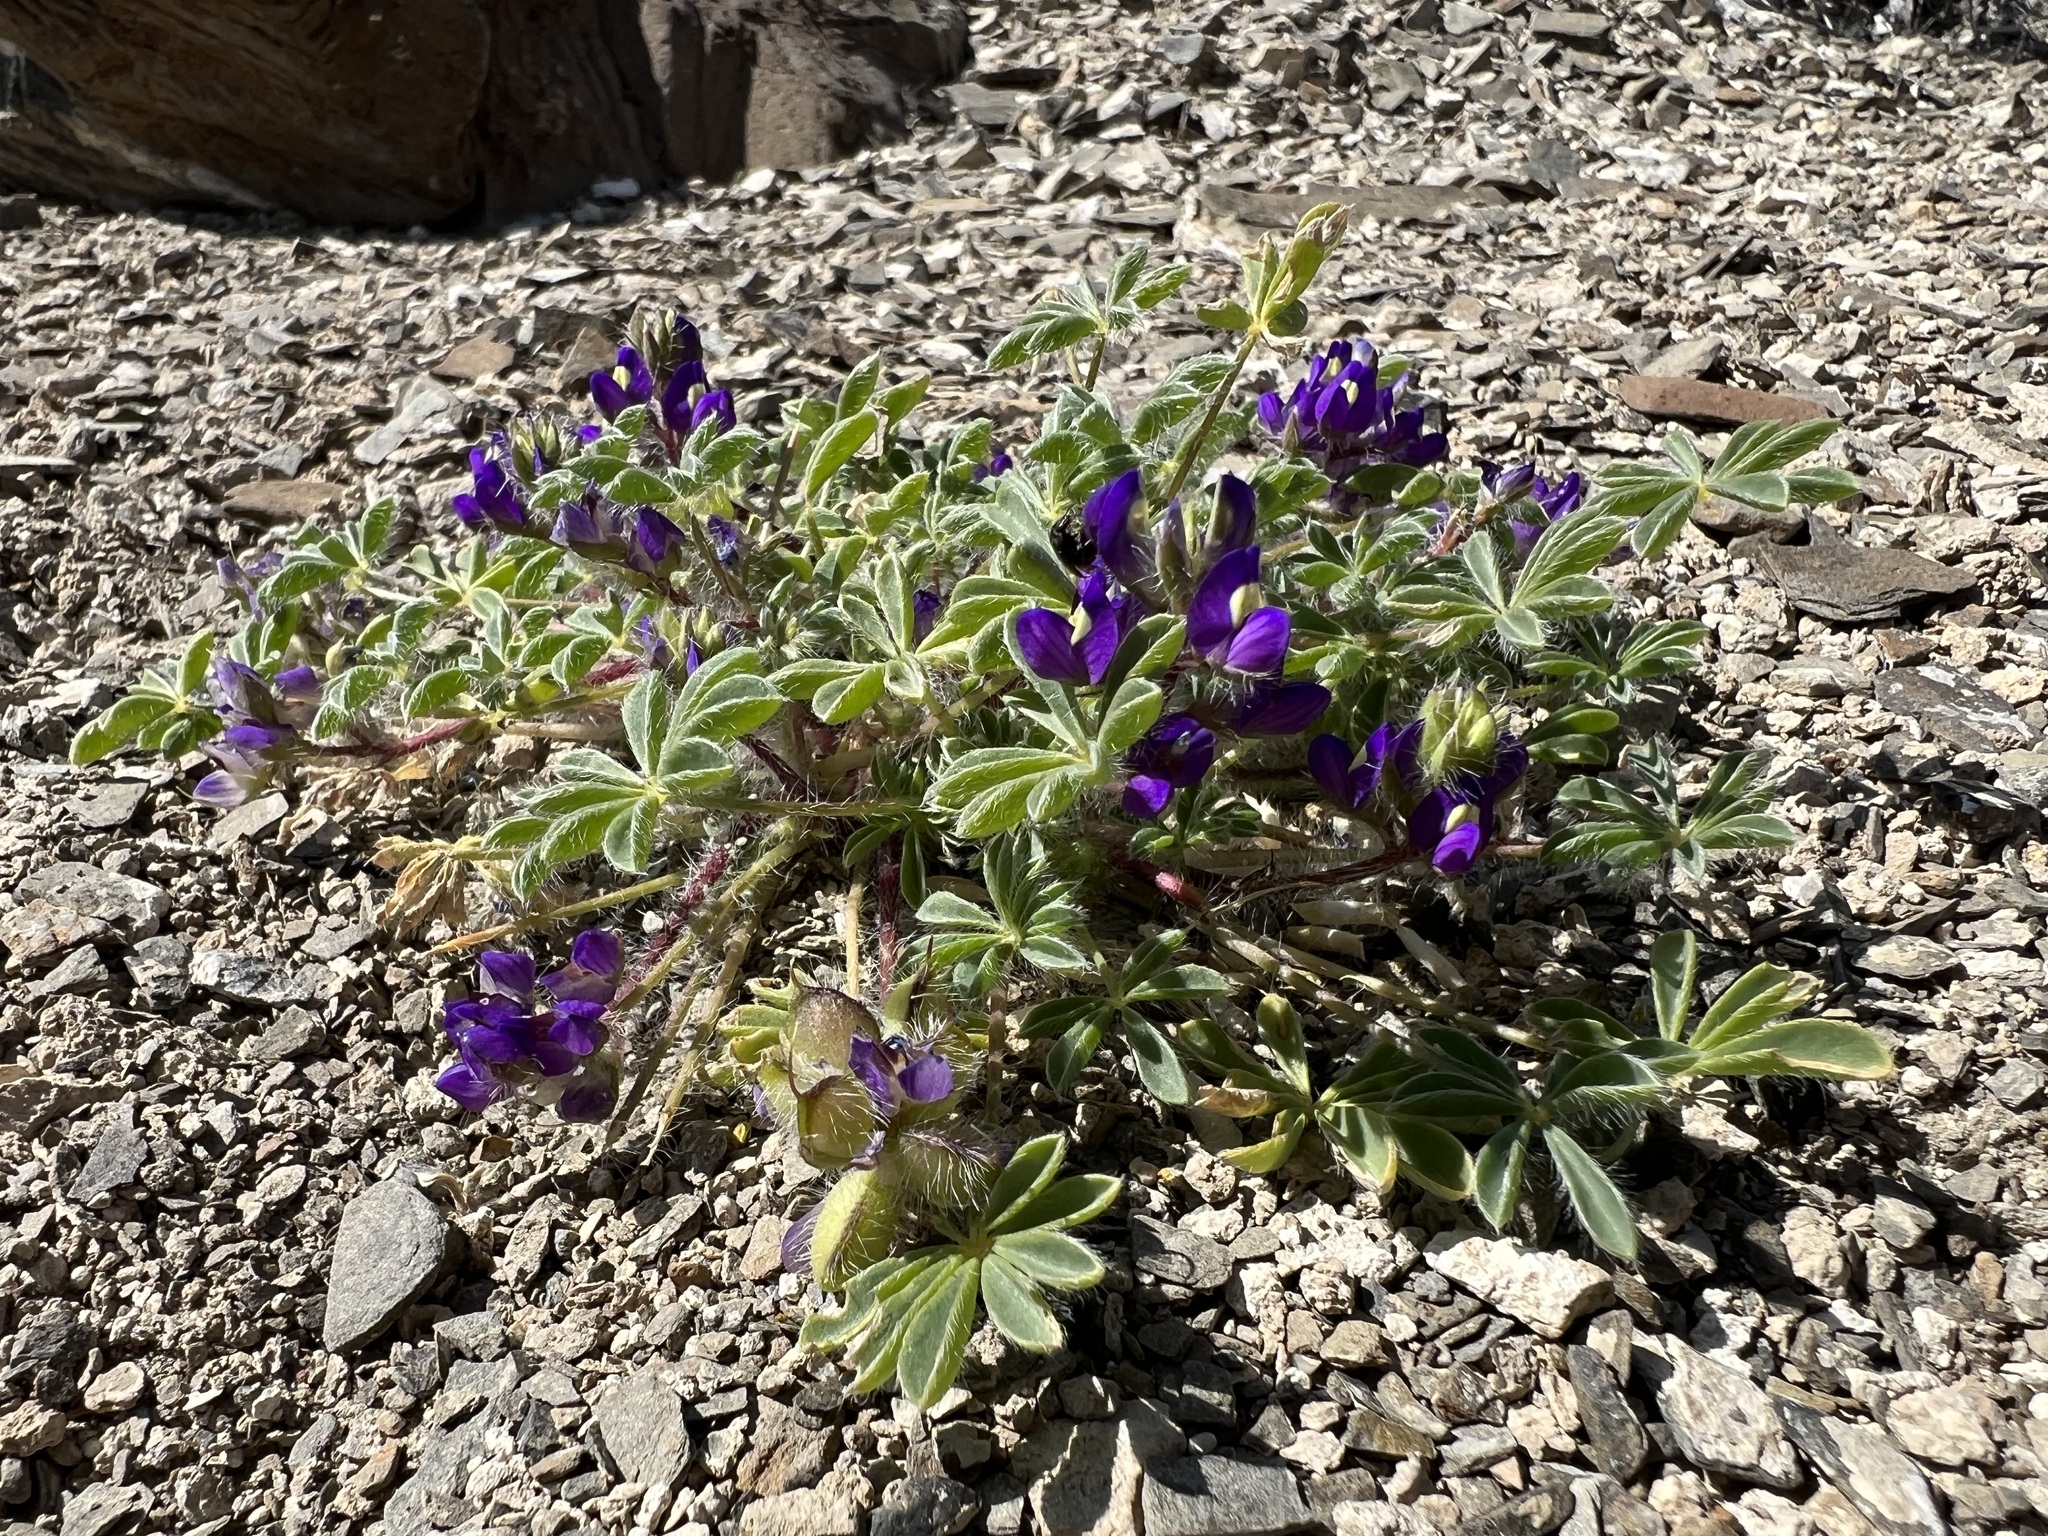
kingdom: Plantae
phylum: Tracheophyta
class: Magnoliopsida
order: Fabales
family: Fabaceae
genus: Lupinus
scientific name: Lupinus flavoculatus
